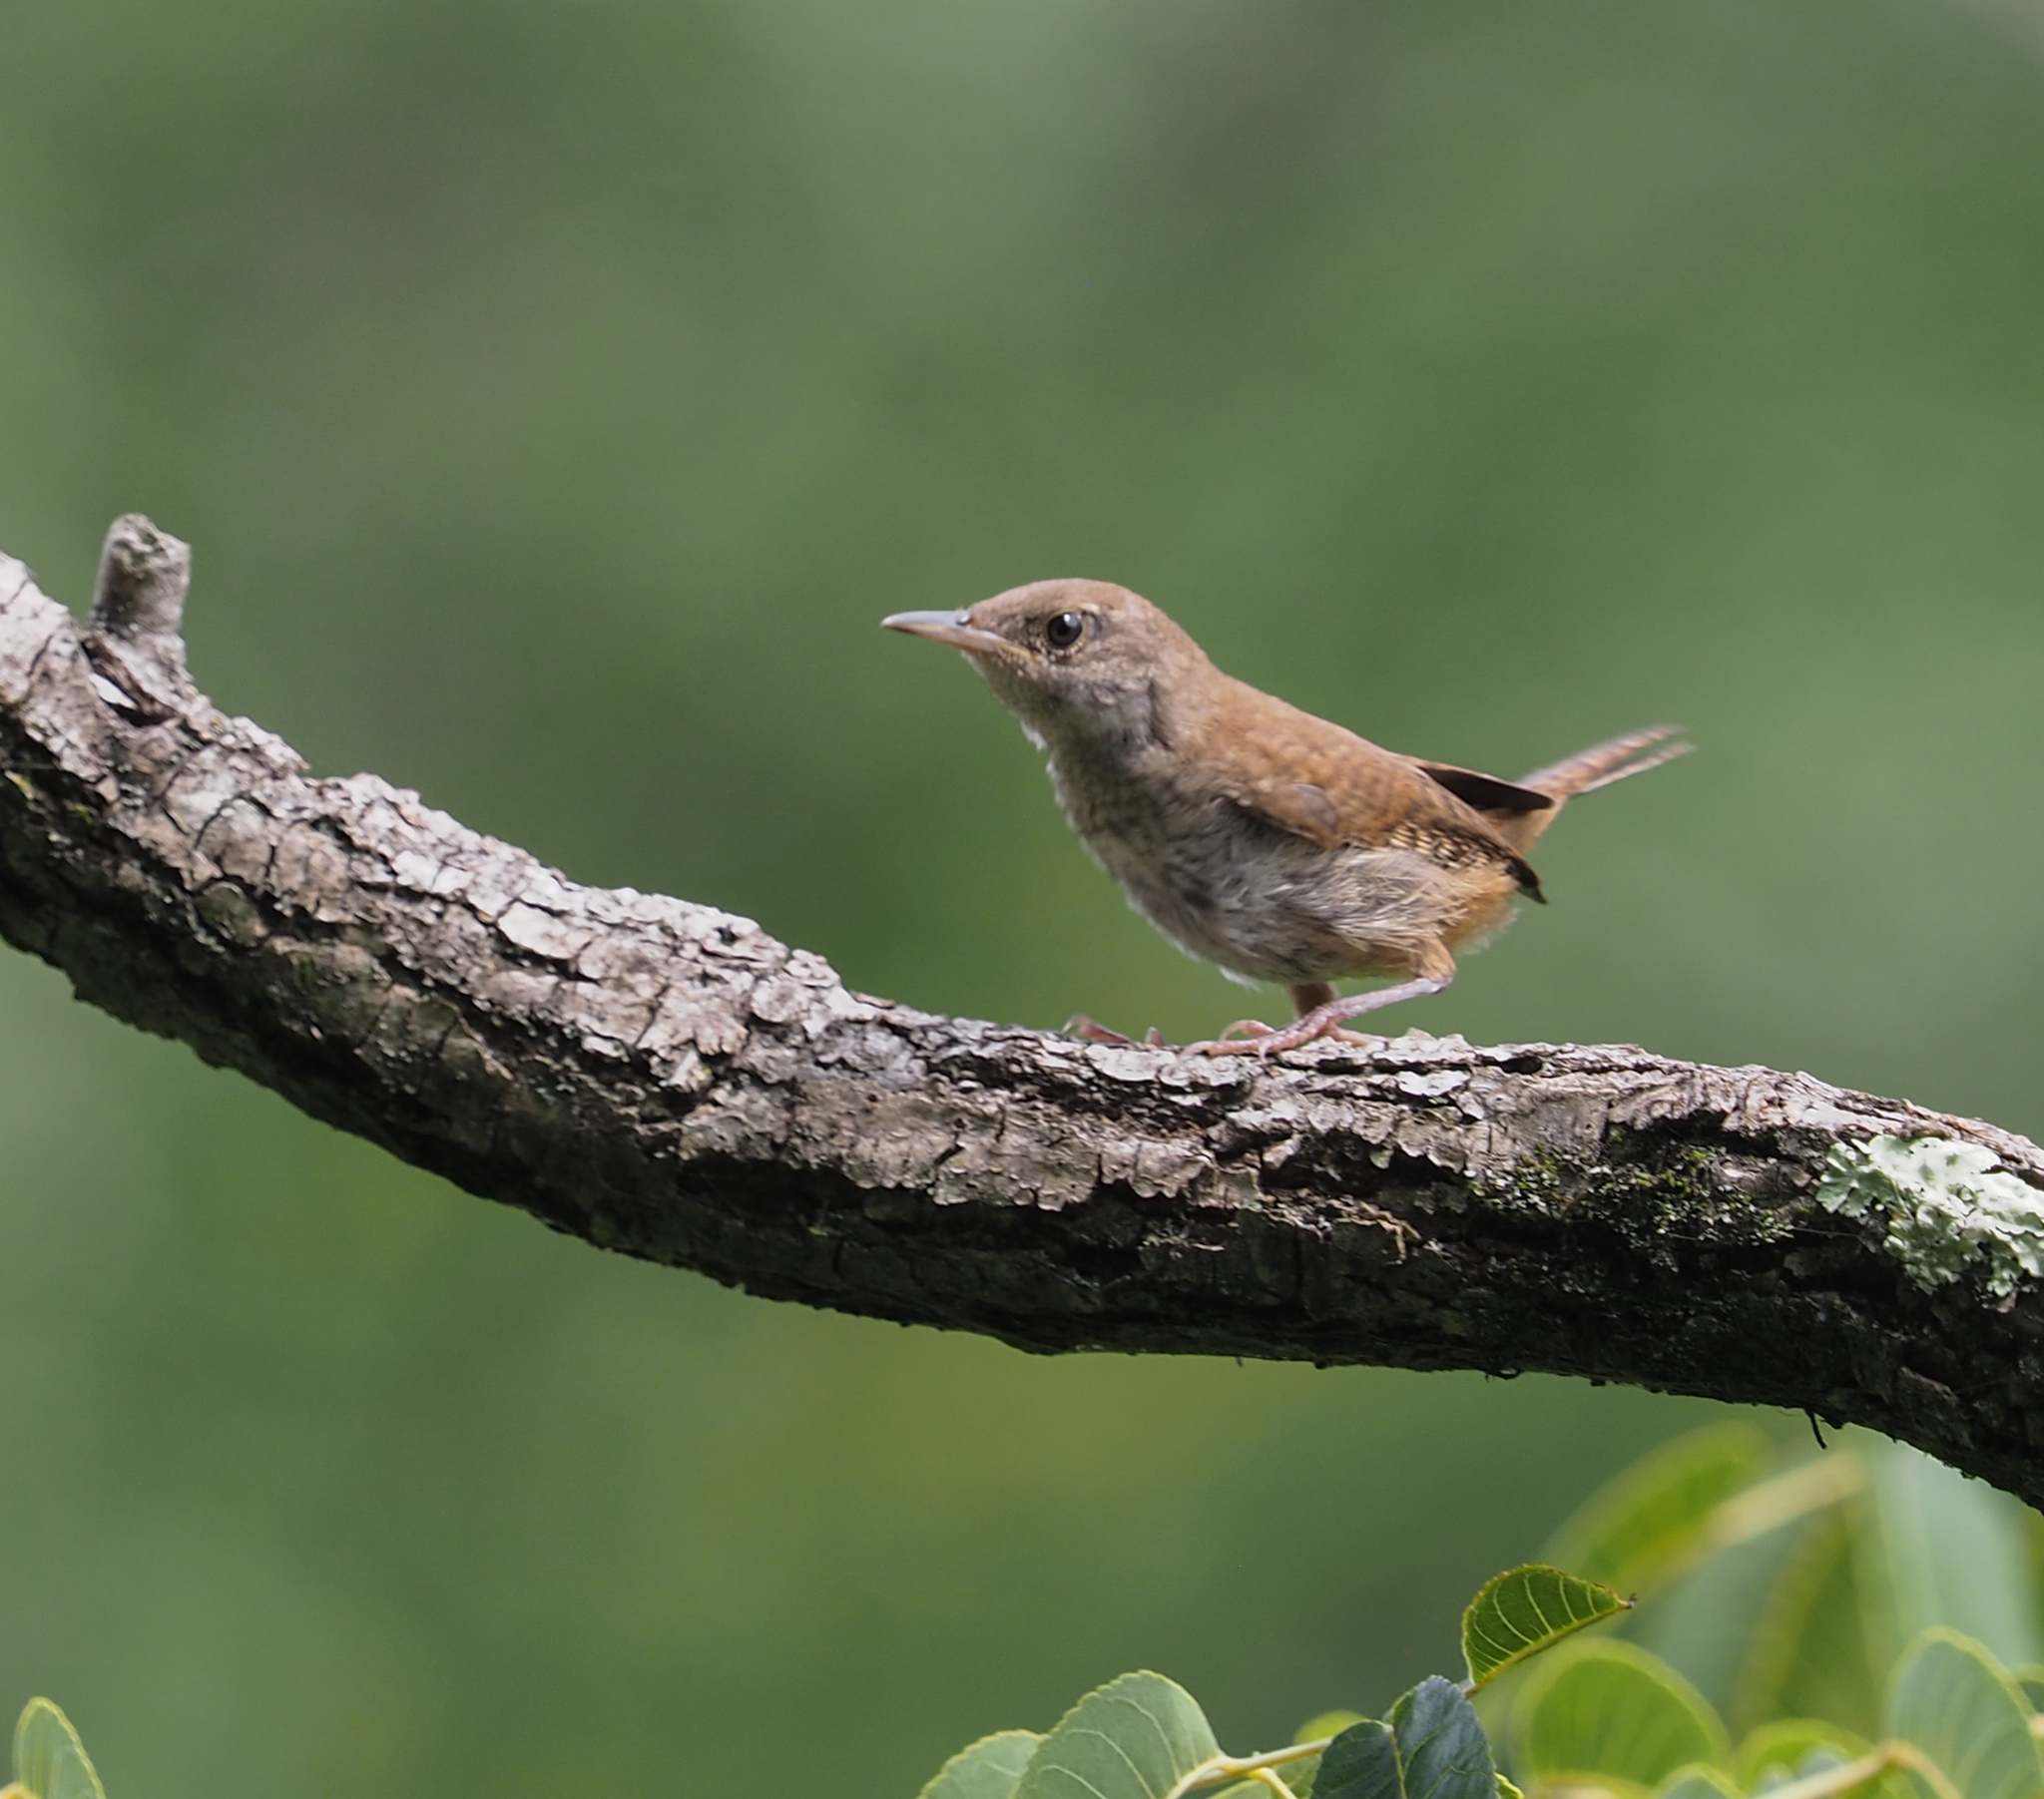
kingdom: Animalia
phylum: Chordata
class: Aves
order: Passeriformes
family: Troglodytidae
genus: Troglodytes
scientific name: Troglodytes aedon
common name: House wren
